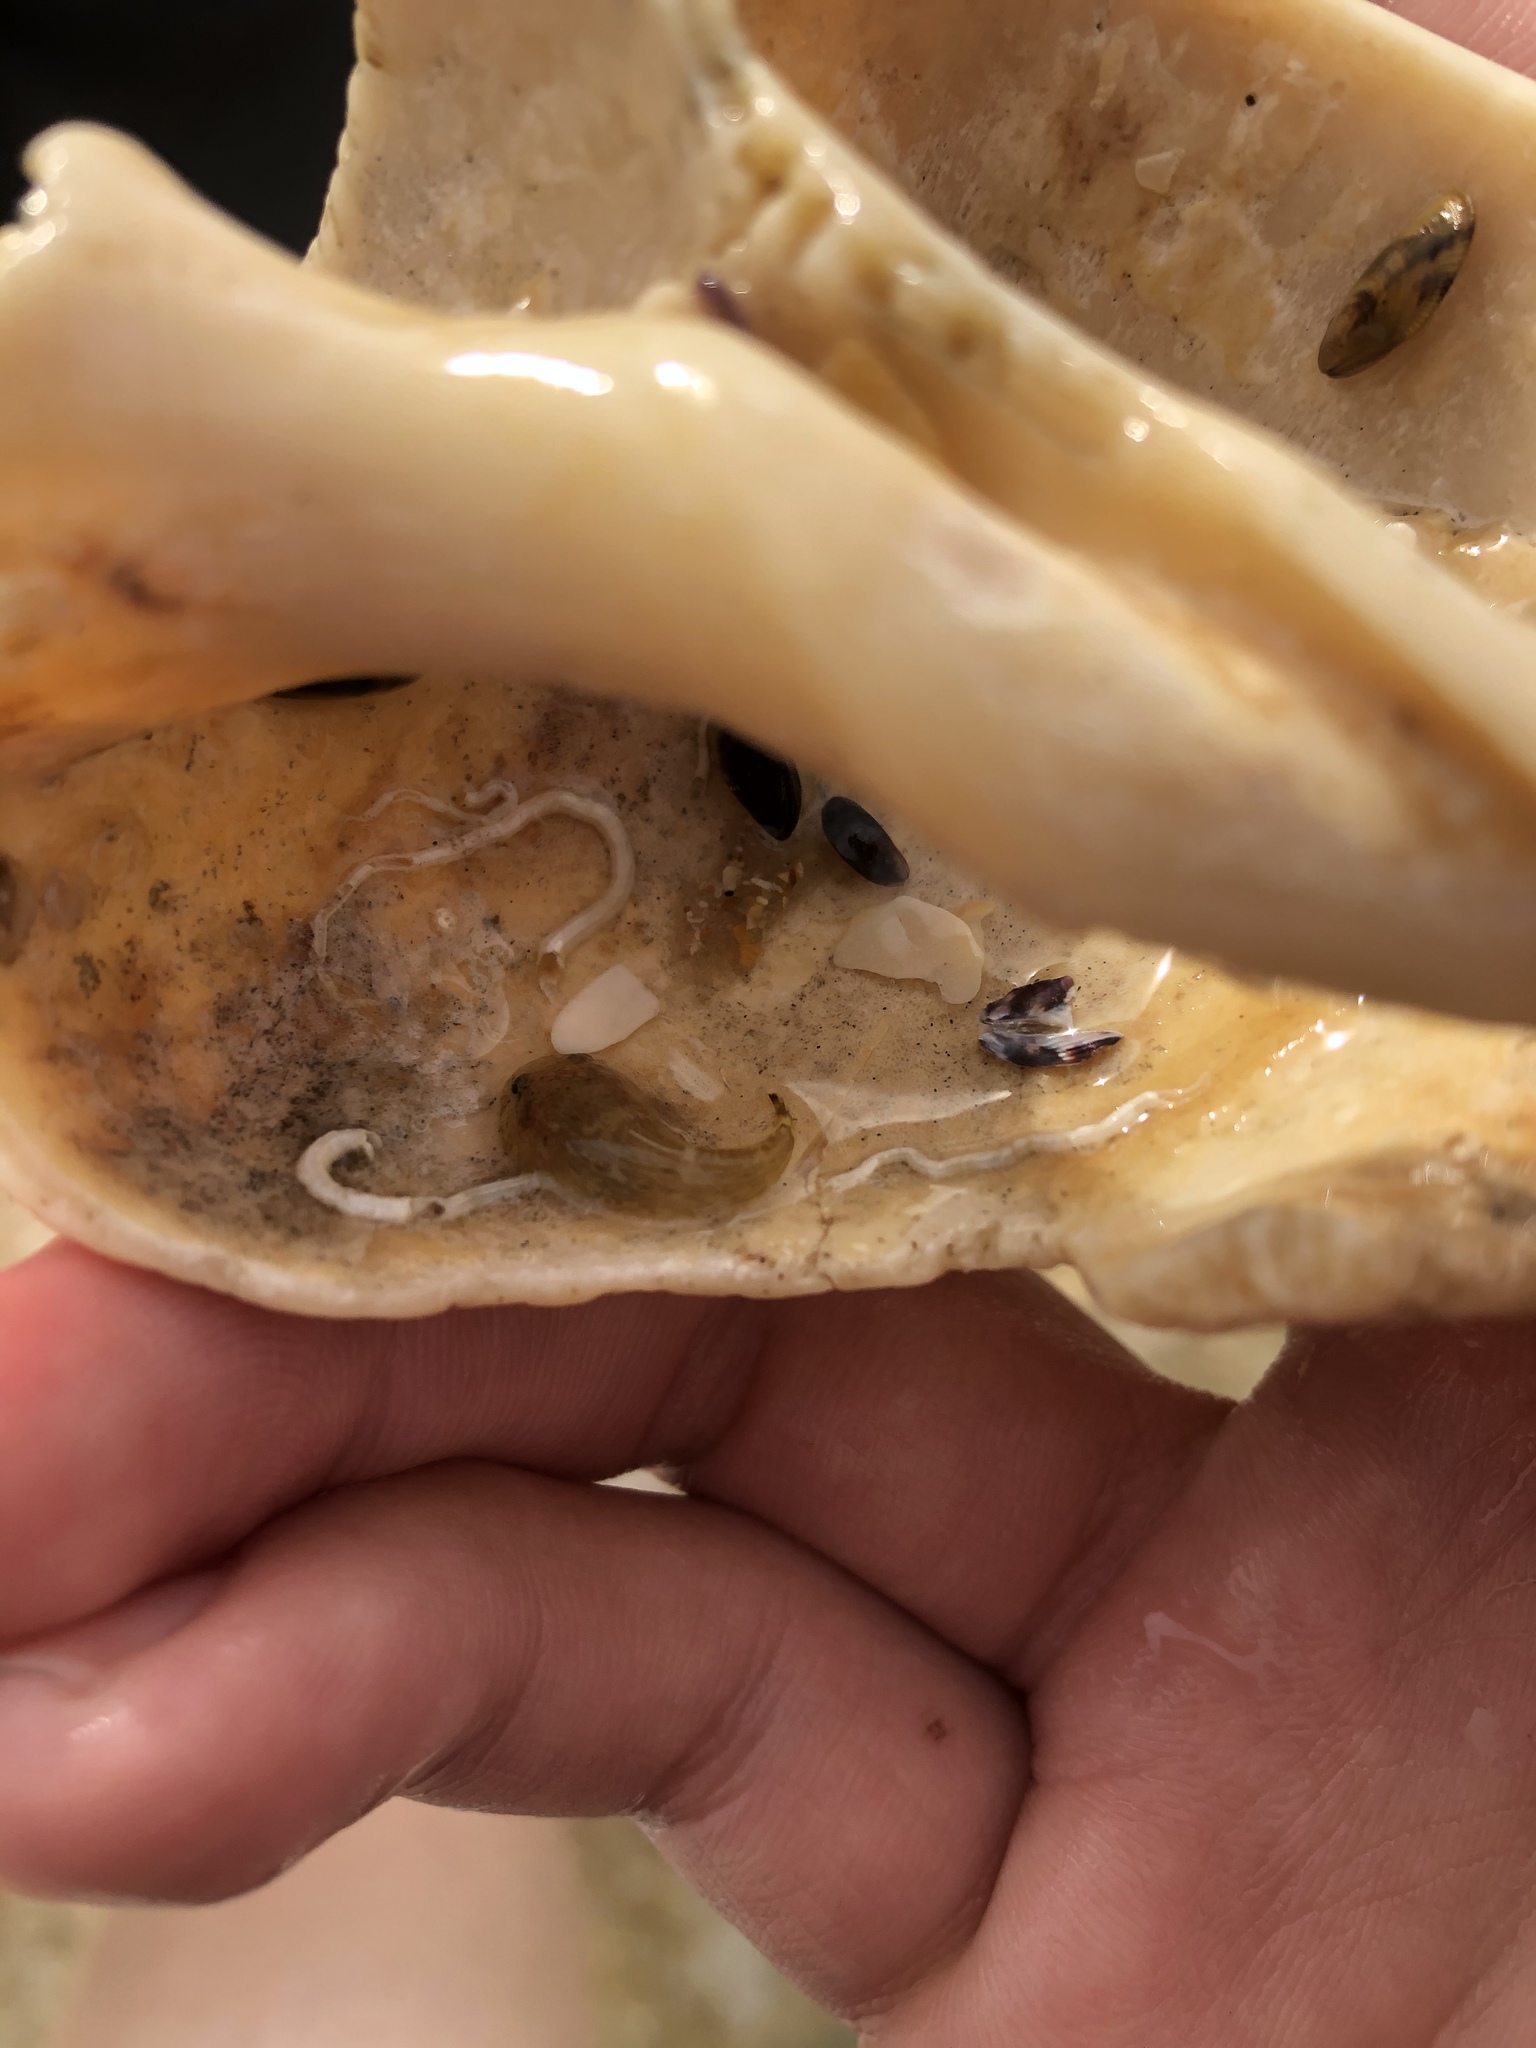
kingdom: Animalia
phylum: Chordata
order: Gobiesociformes
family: Gobiesocidae
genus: Gobiesox
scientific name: Gobiesox strumosus
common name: Skilletfish
